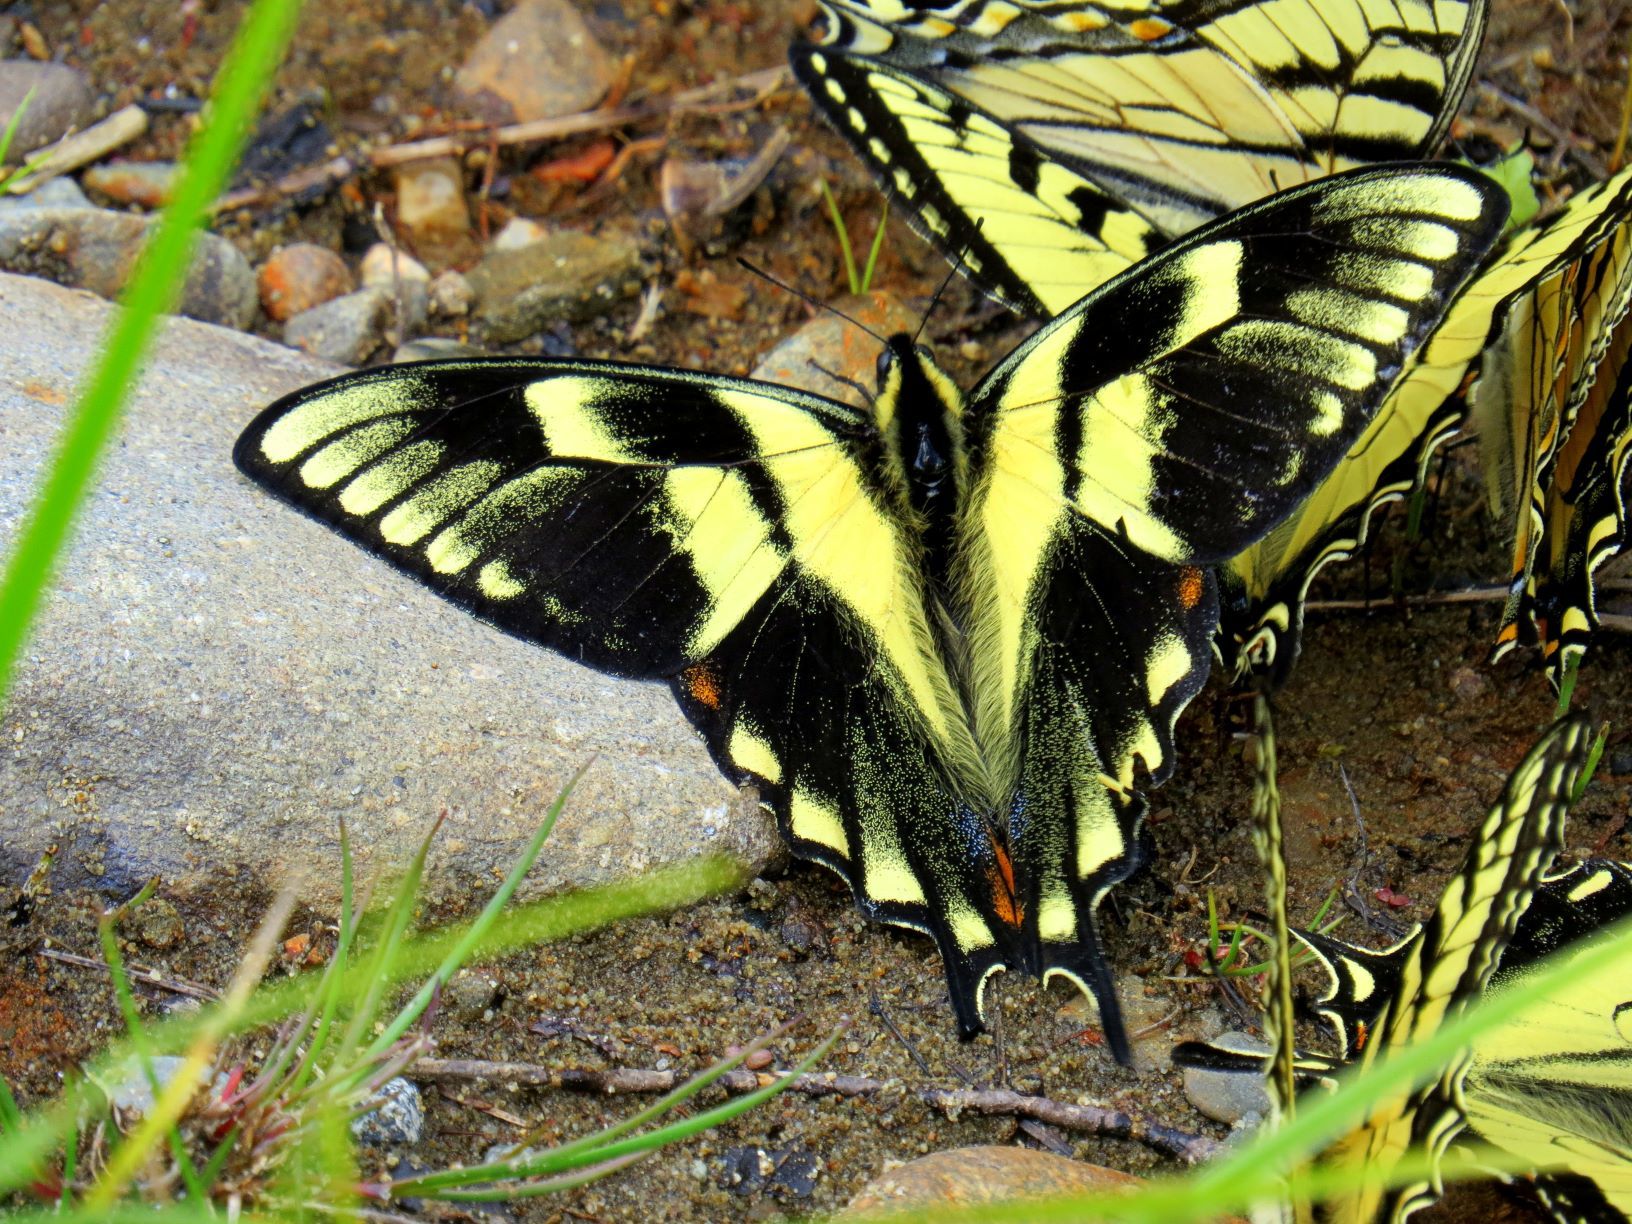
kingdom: Animalia
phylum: Arthropoda
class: Insecta
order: Lepidoptera
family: Papilionidae
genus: Papilio
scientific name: Papilio canadensis
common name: Canadian tiger swallowtail
